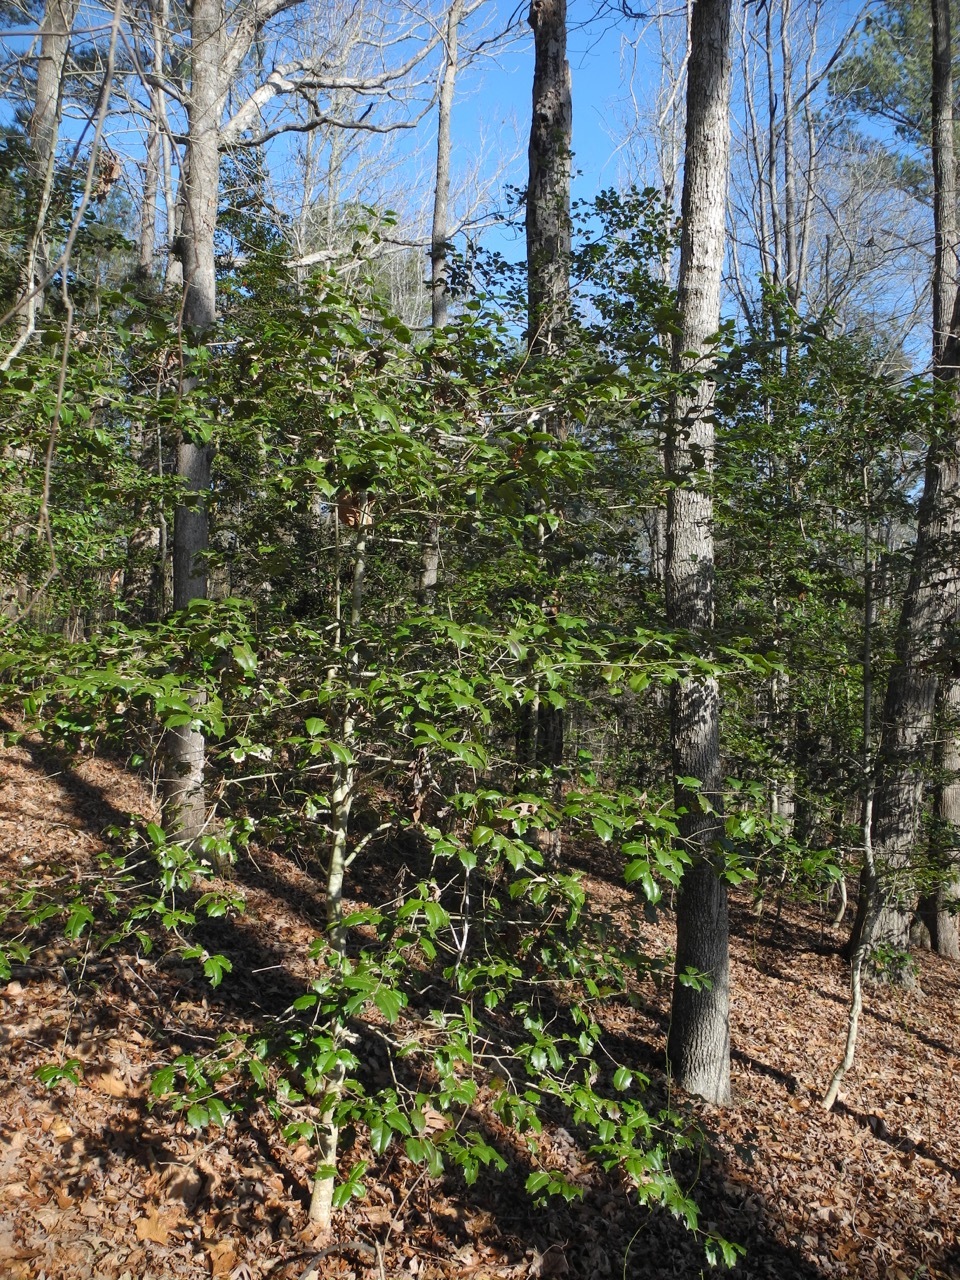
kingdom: Plantae
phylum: Tracheophyta
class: Magnoliopsida
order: Aquifoliales
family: Aquifoliaceae
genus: Ilex
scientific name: Ilex opaca
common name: American holly
